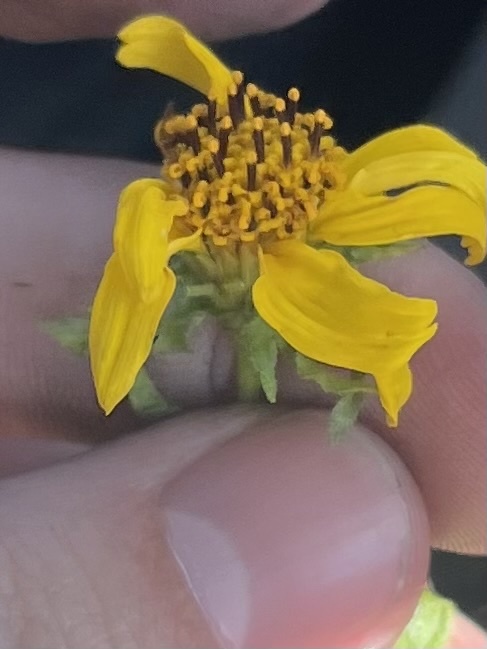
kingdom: Plantae
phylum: Tracheophyta
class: Magnoliopsida
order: Asterales
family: Asteraceae
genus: Bahiopsis
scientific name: Bahiopsis laciniata
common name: San diego county viguiera
